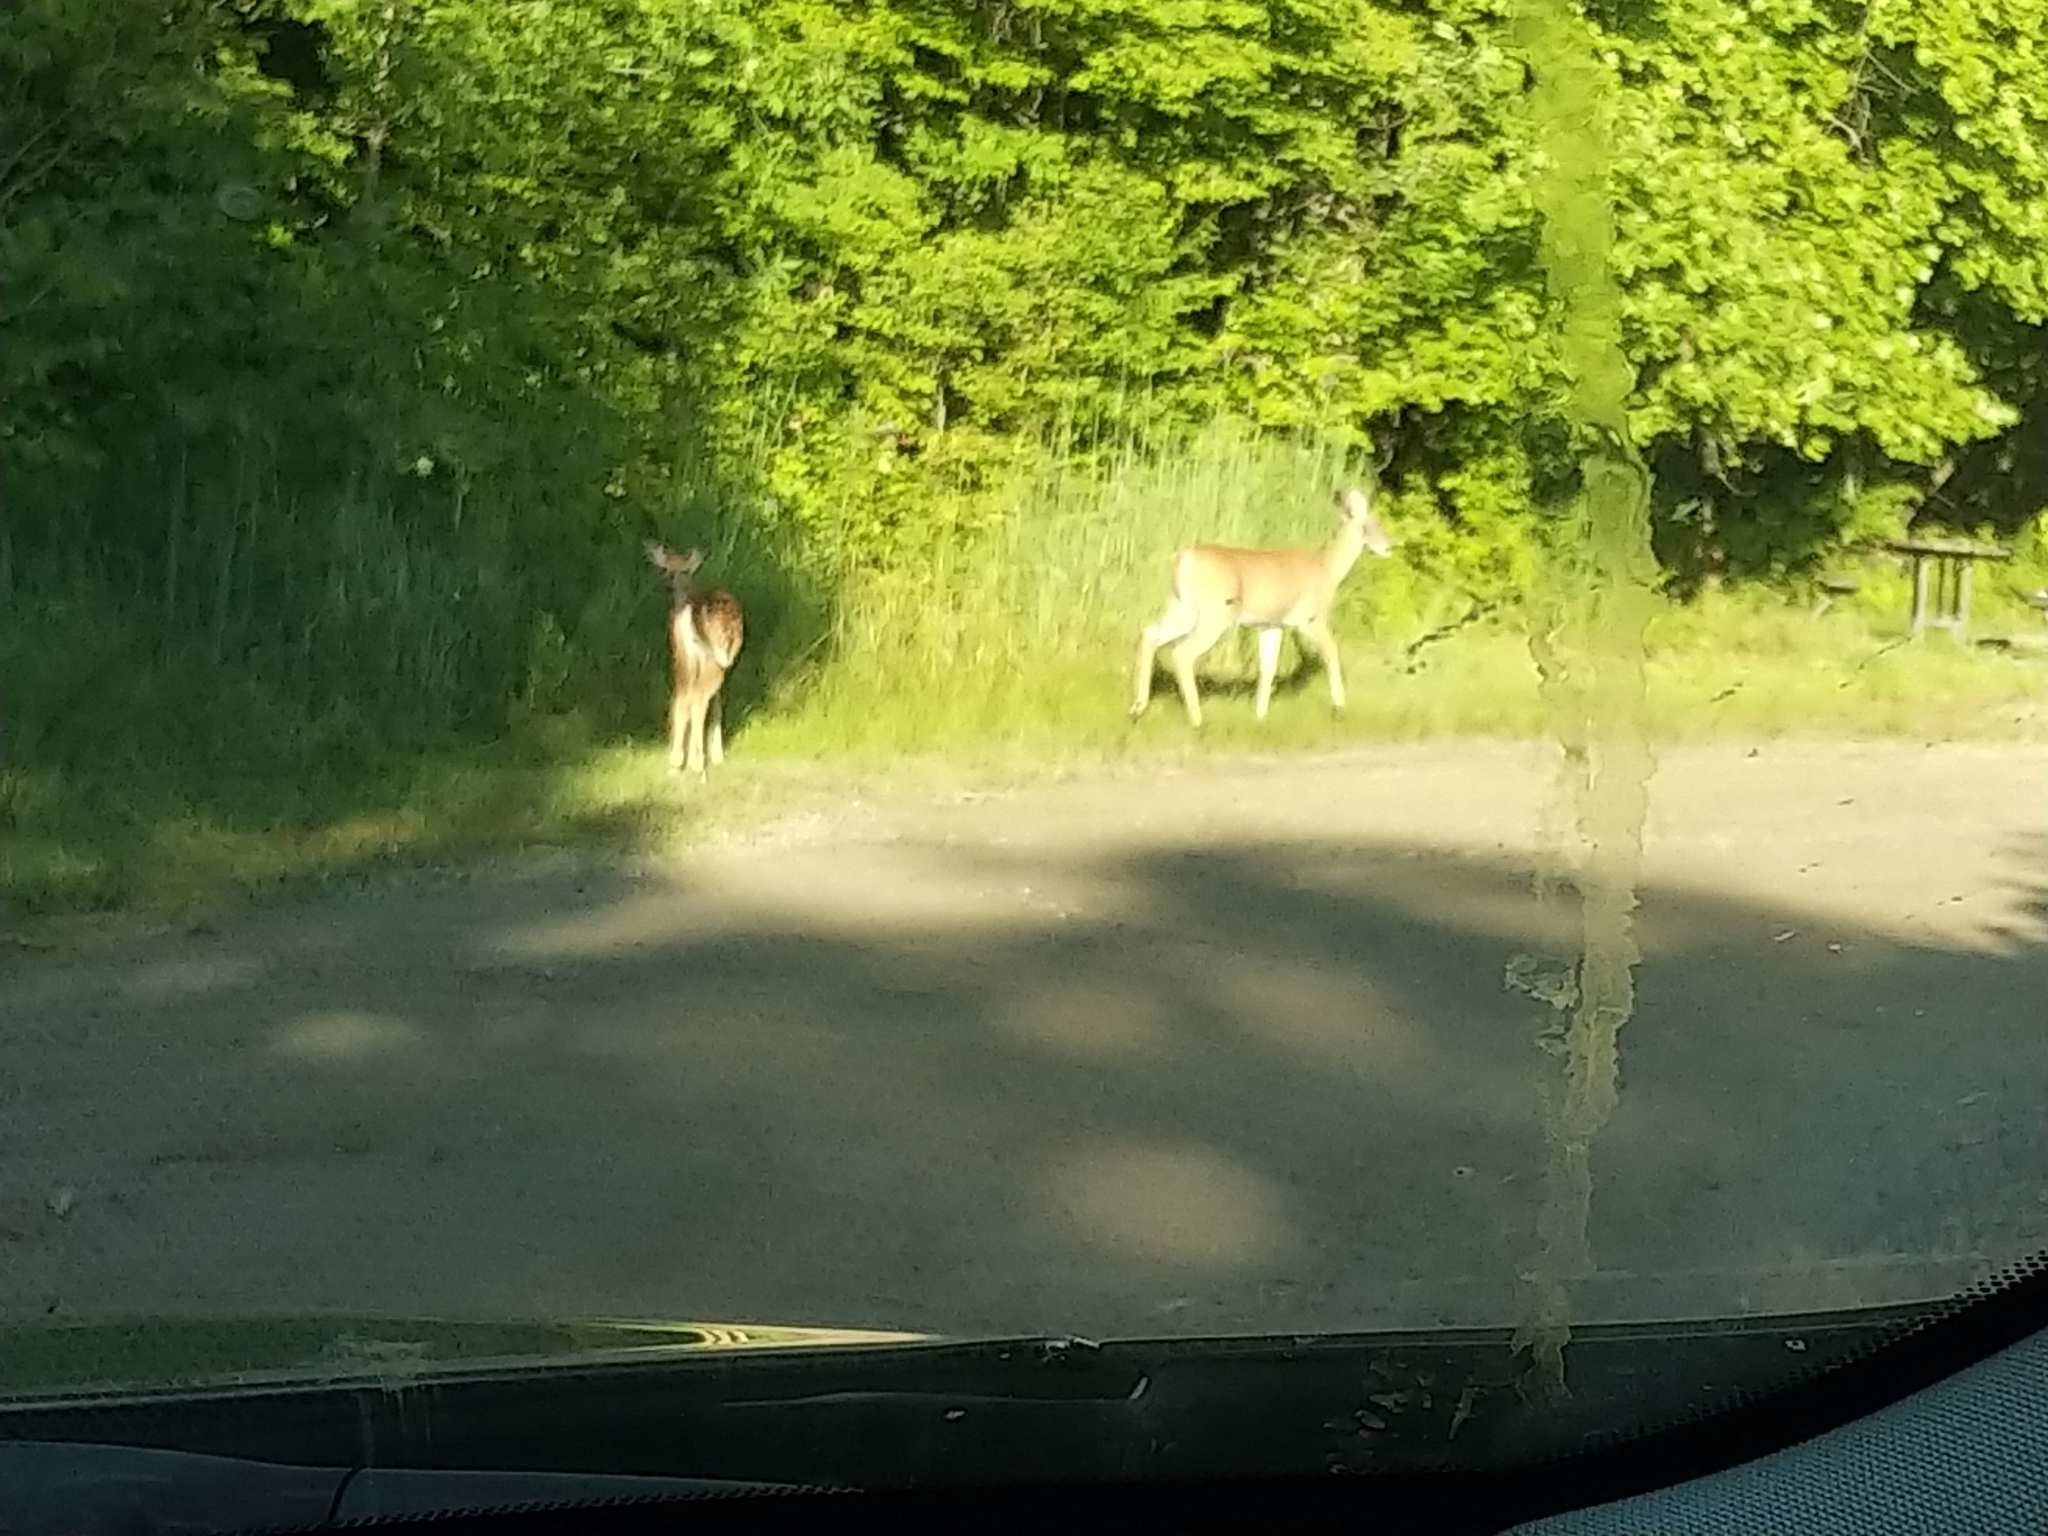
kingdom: Animalia
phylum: Chordata
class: Mammalia
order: Artiodactyla
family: Cervidae
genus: Odocoileus
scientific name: Odocoileus virginianus
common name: White-tailed deer
